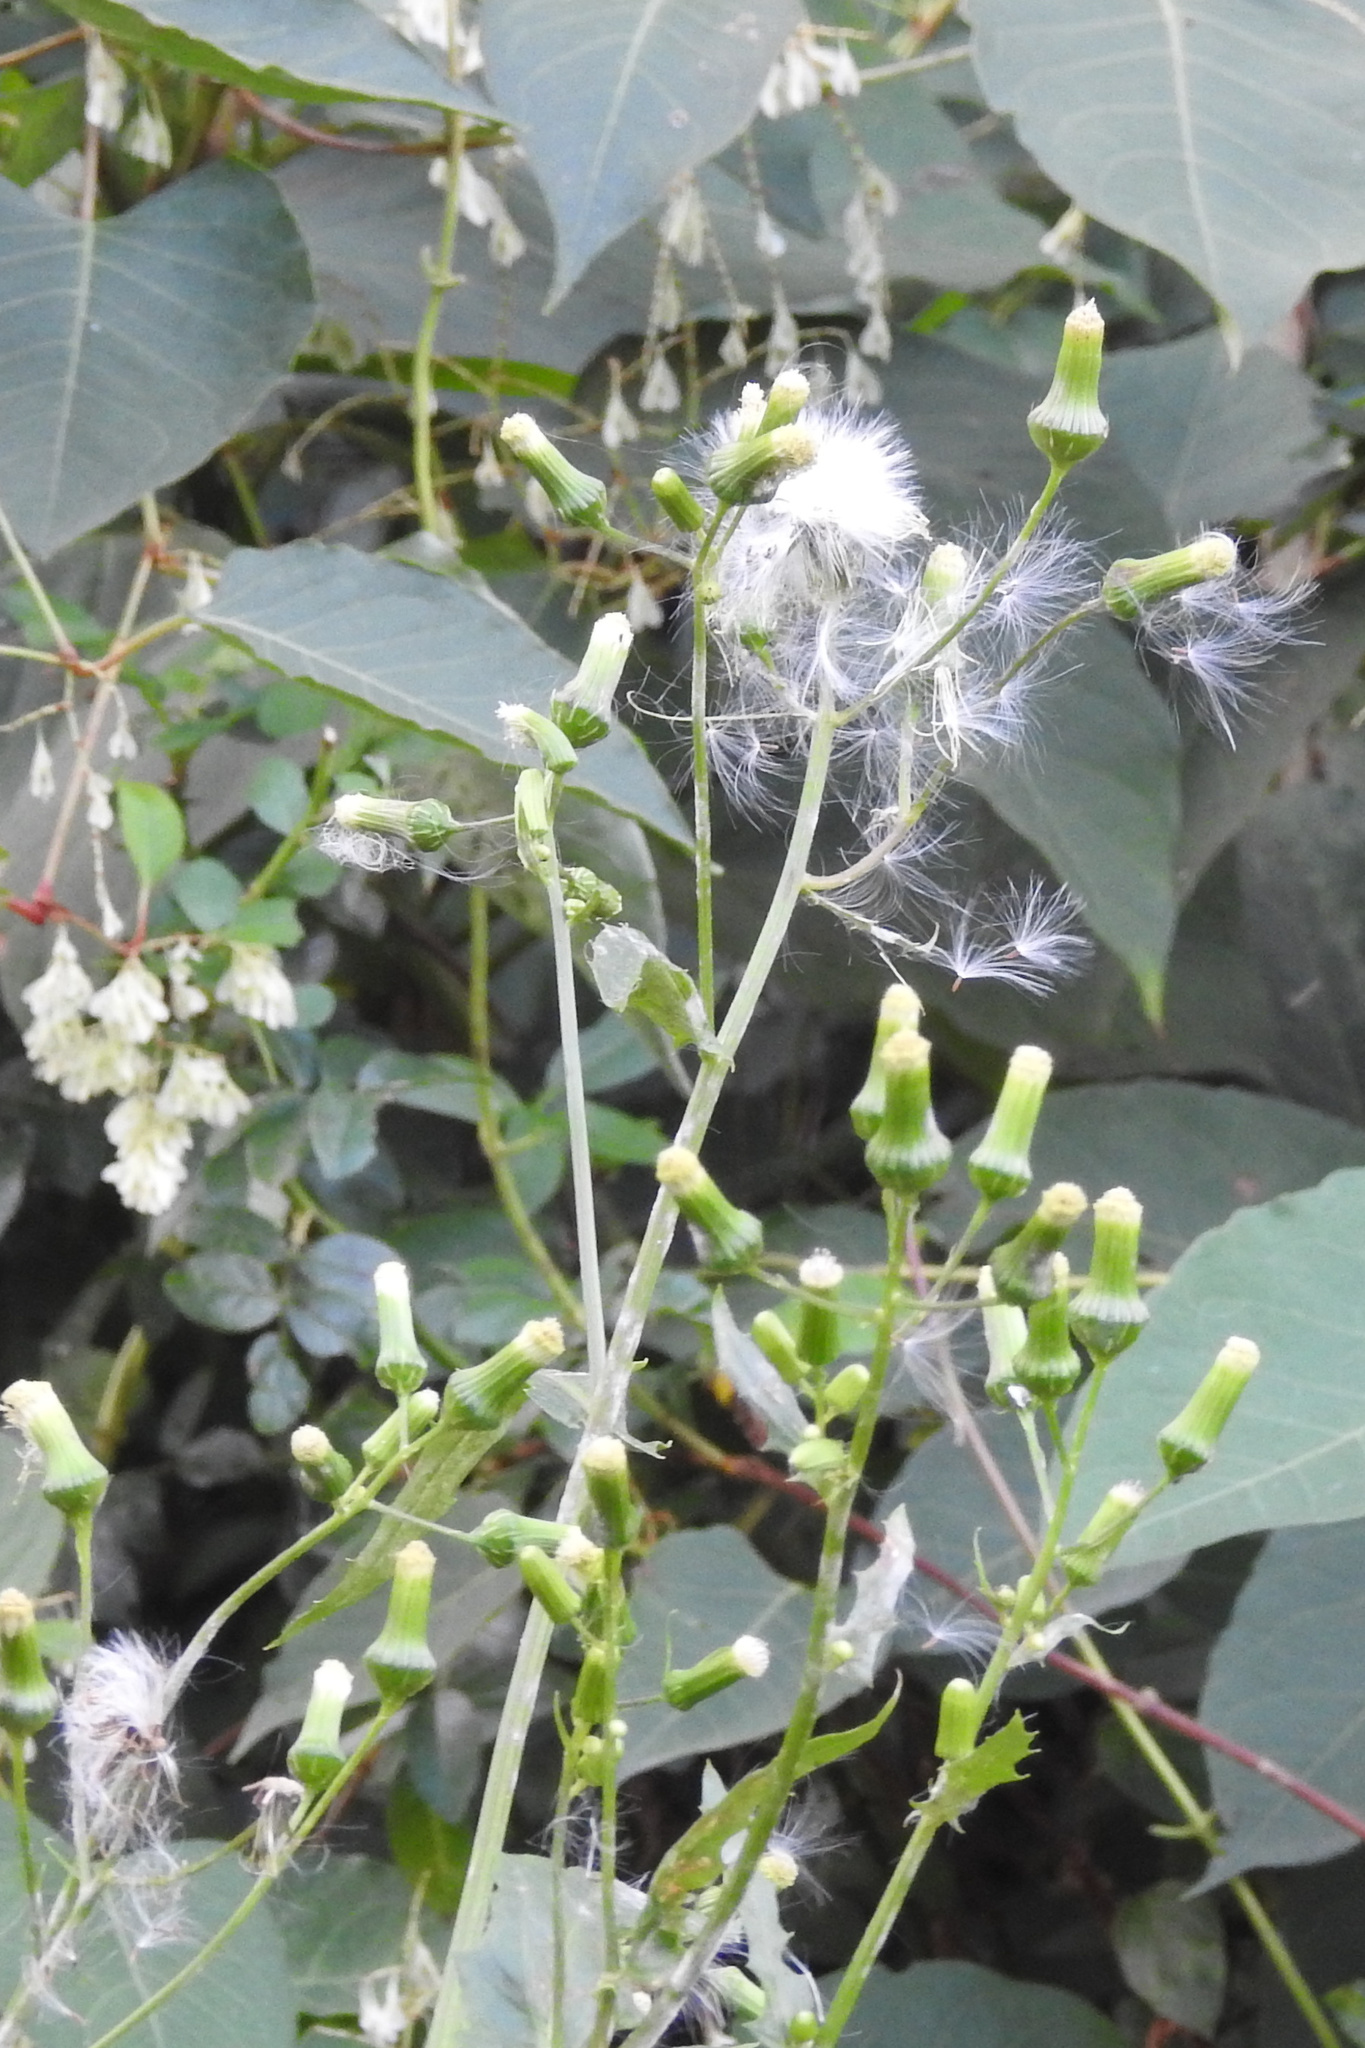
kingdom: Plantae
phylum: Tracheophyta
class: Magnoliopsida
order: Asterales
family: Asteraceae
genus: Erechtites
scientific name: Erechtites hieraciifolius
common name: American burnweed
